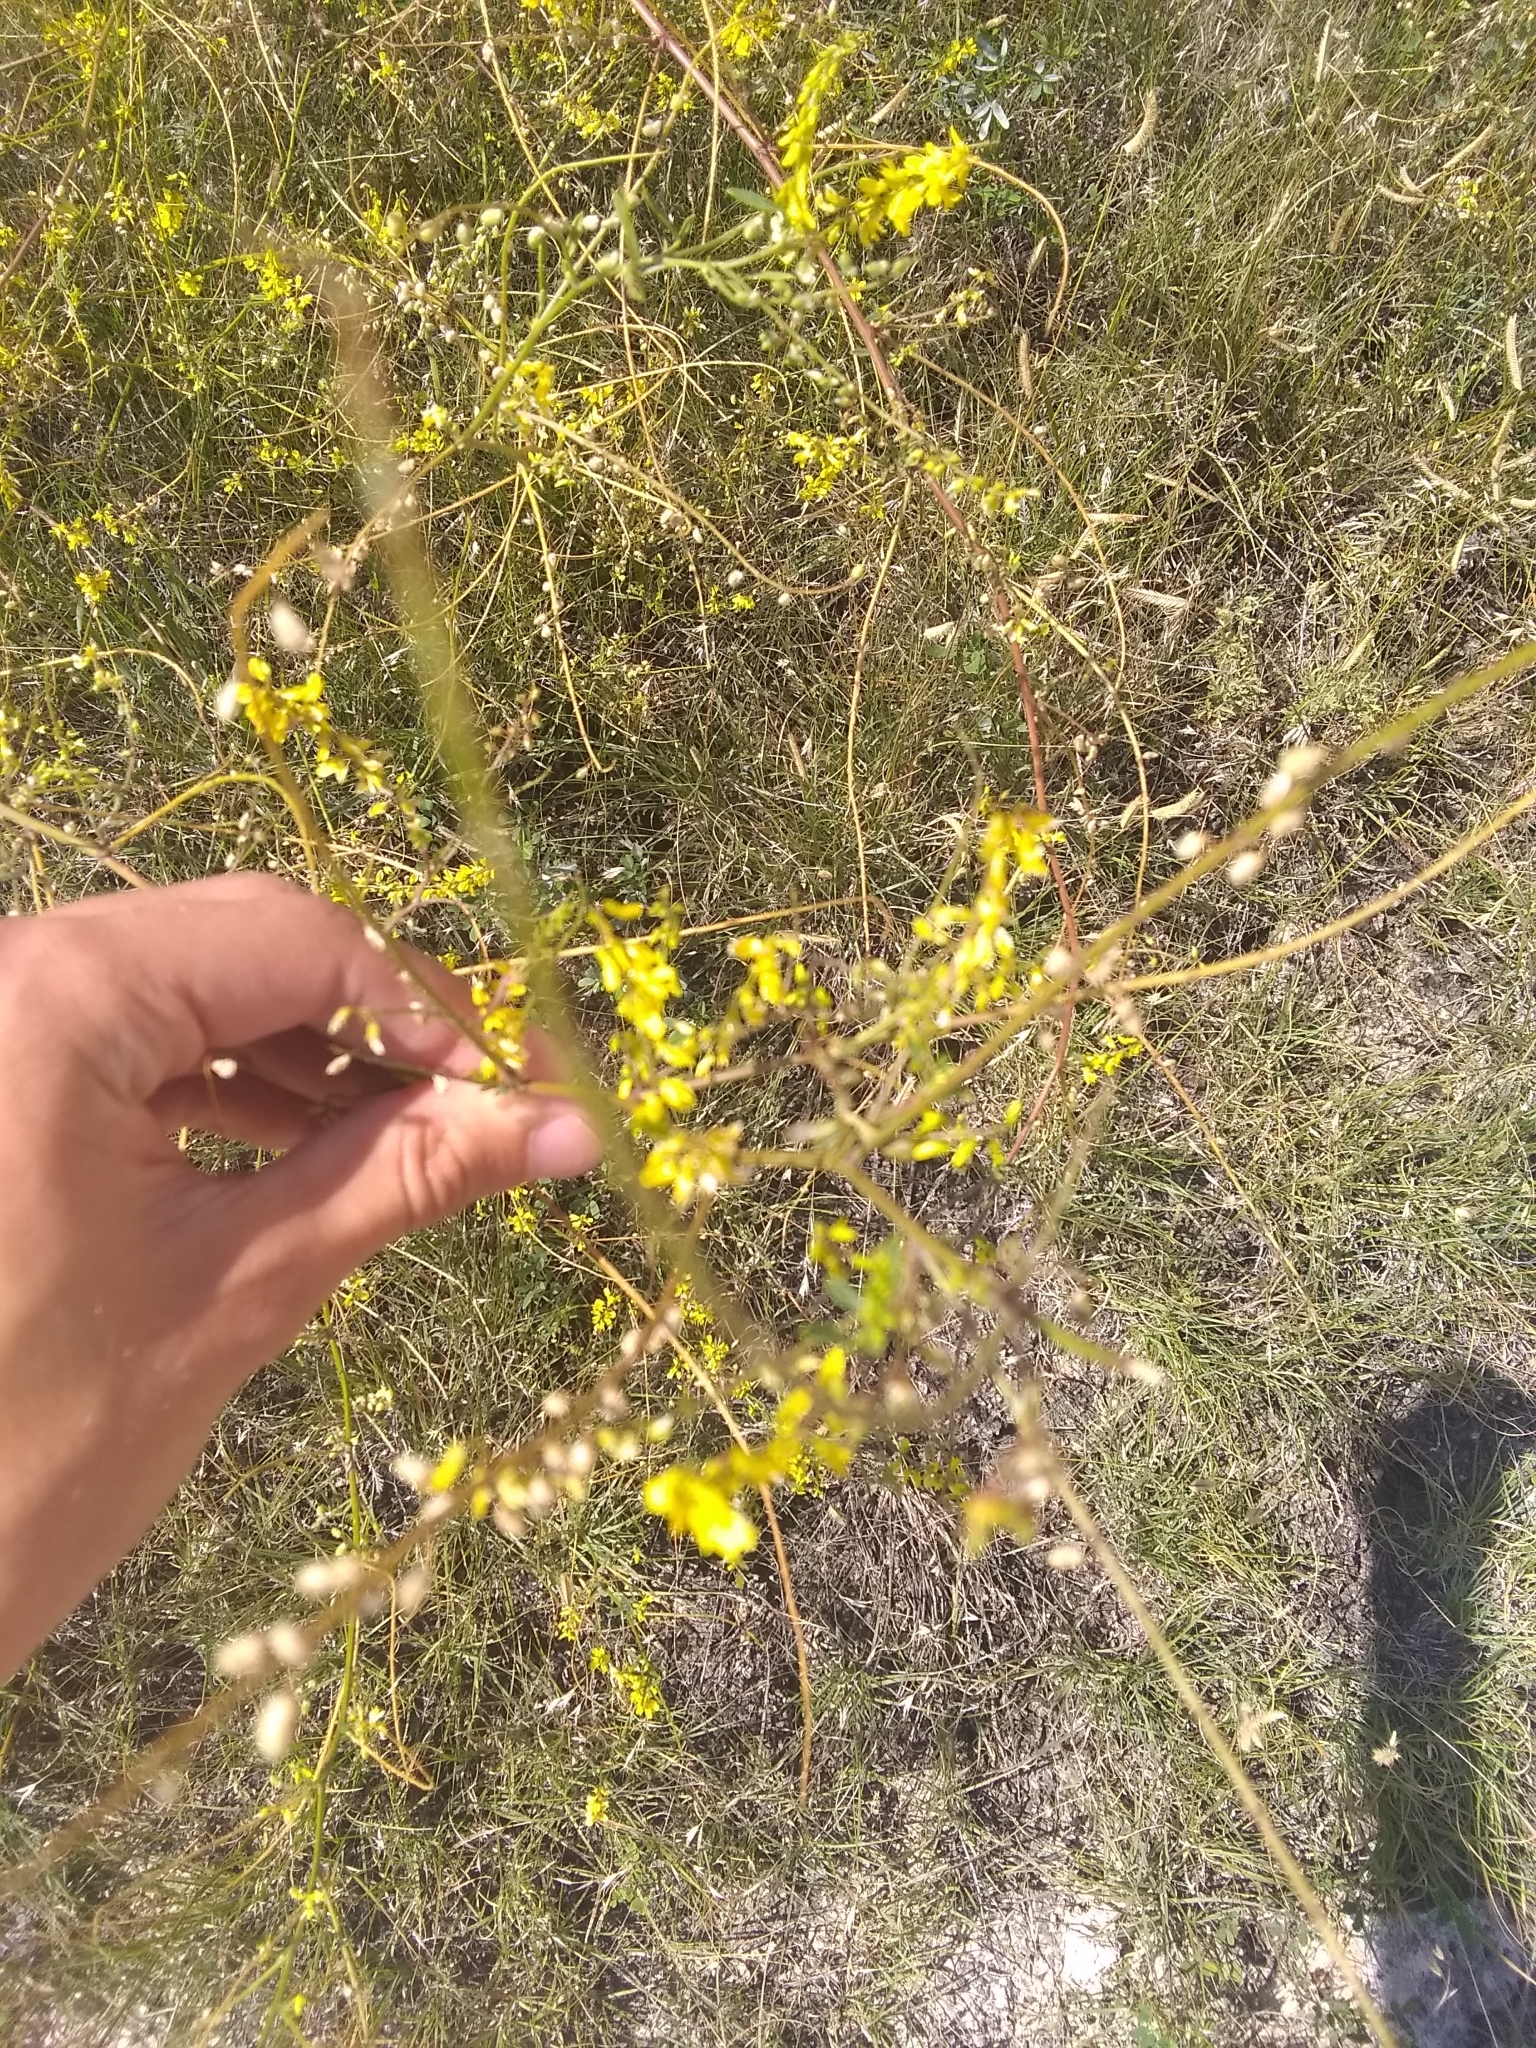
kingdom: Plantae
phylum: Tracheophyta
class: Magnoliopsida
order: Fabales
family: Fabaceae
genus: Melilotus
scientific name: Melilotus officinalis
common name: Sweetclover
